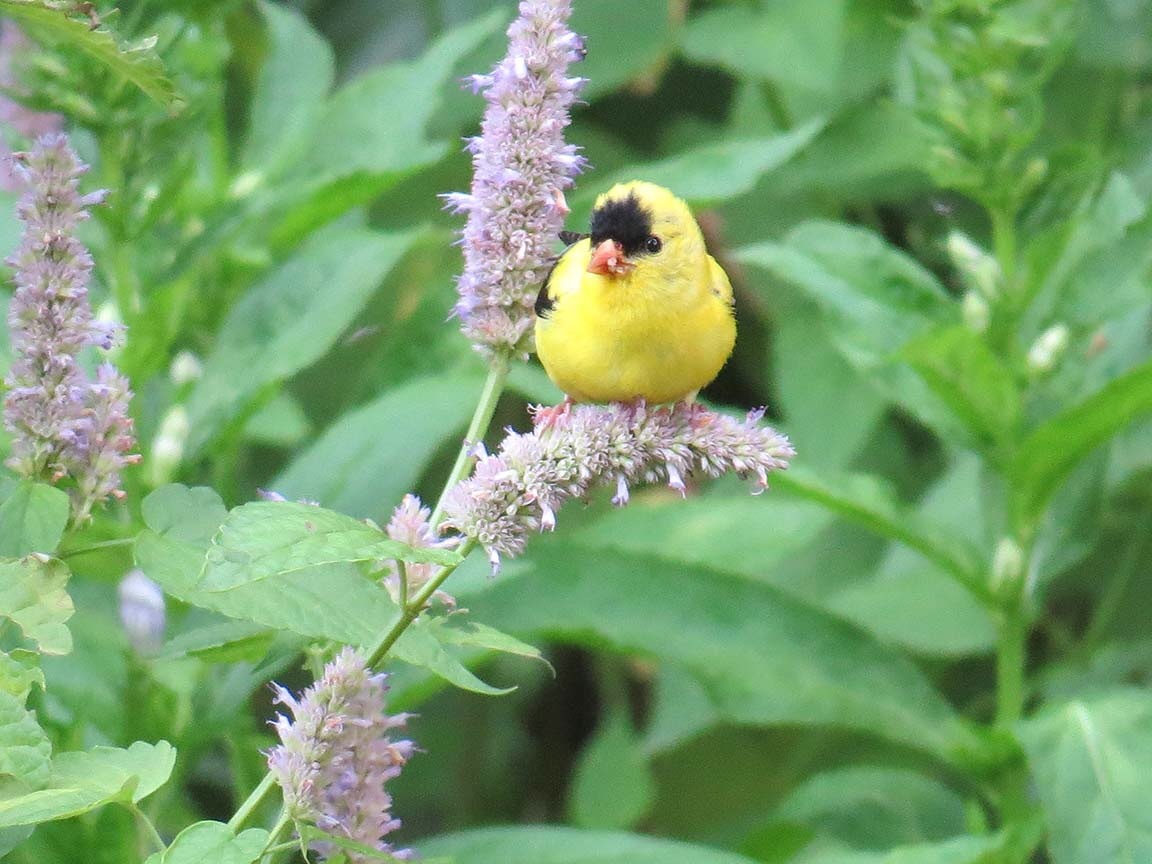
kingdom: Animalia
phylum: Chordata
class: Aves
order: Passeriformes
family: Fringillidae
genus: Spinus
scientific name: Spinus tristis
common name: American goldfinch
